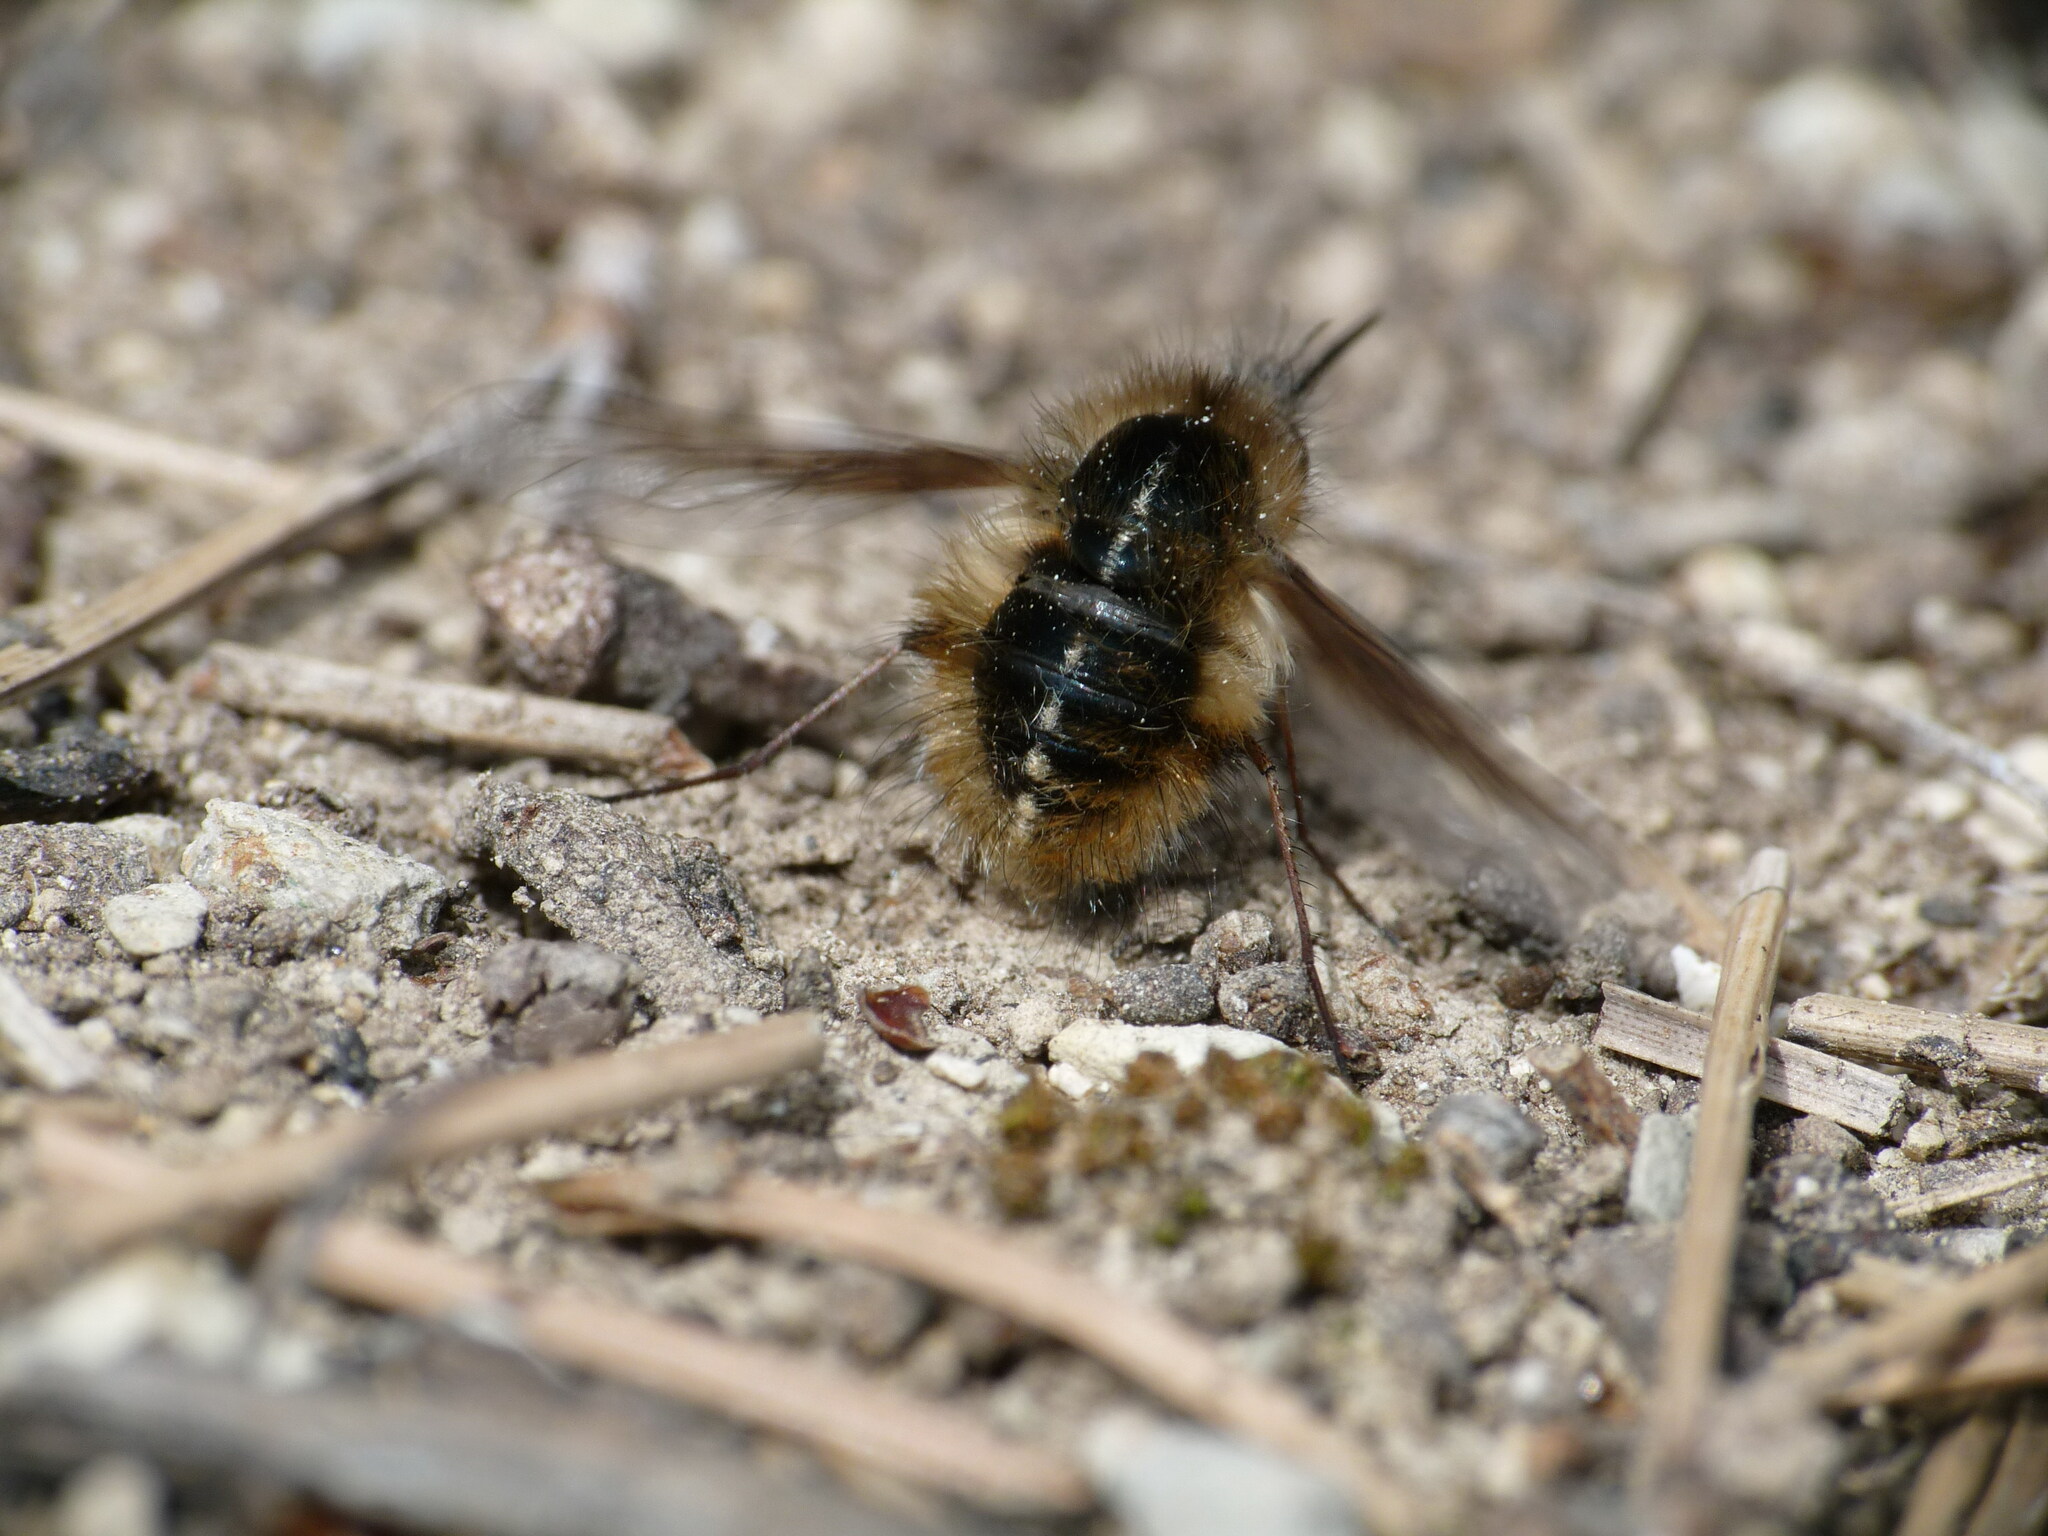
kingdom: Animalia
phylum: Arthropoda
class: Insecta
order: Diptera
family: Bombyliidae
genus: Bombylius
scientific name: Bombylius analis
